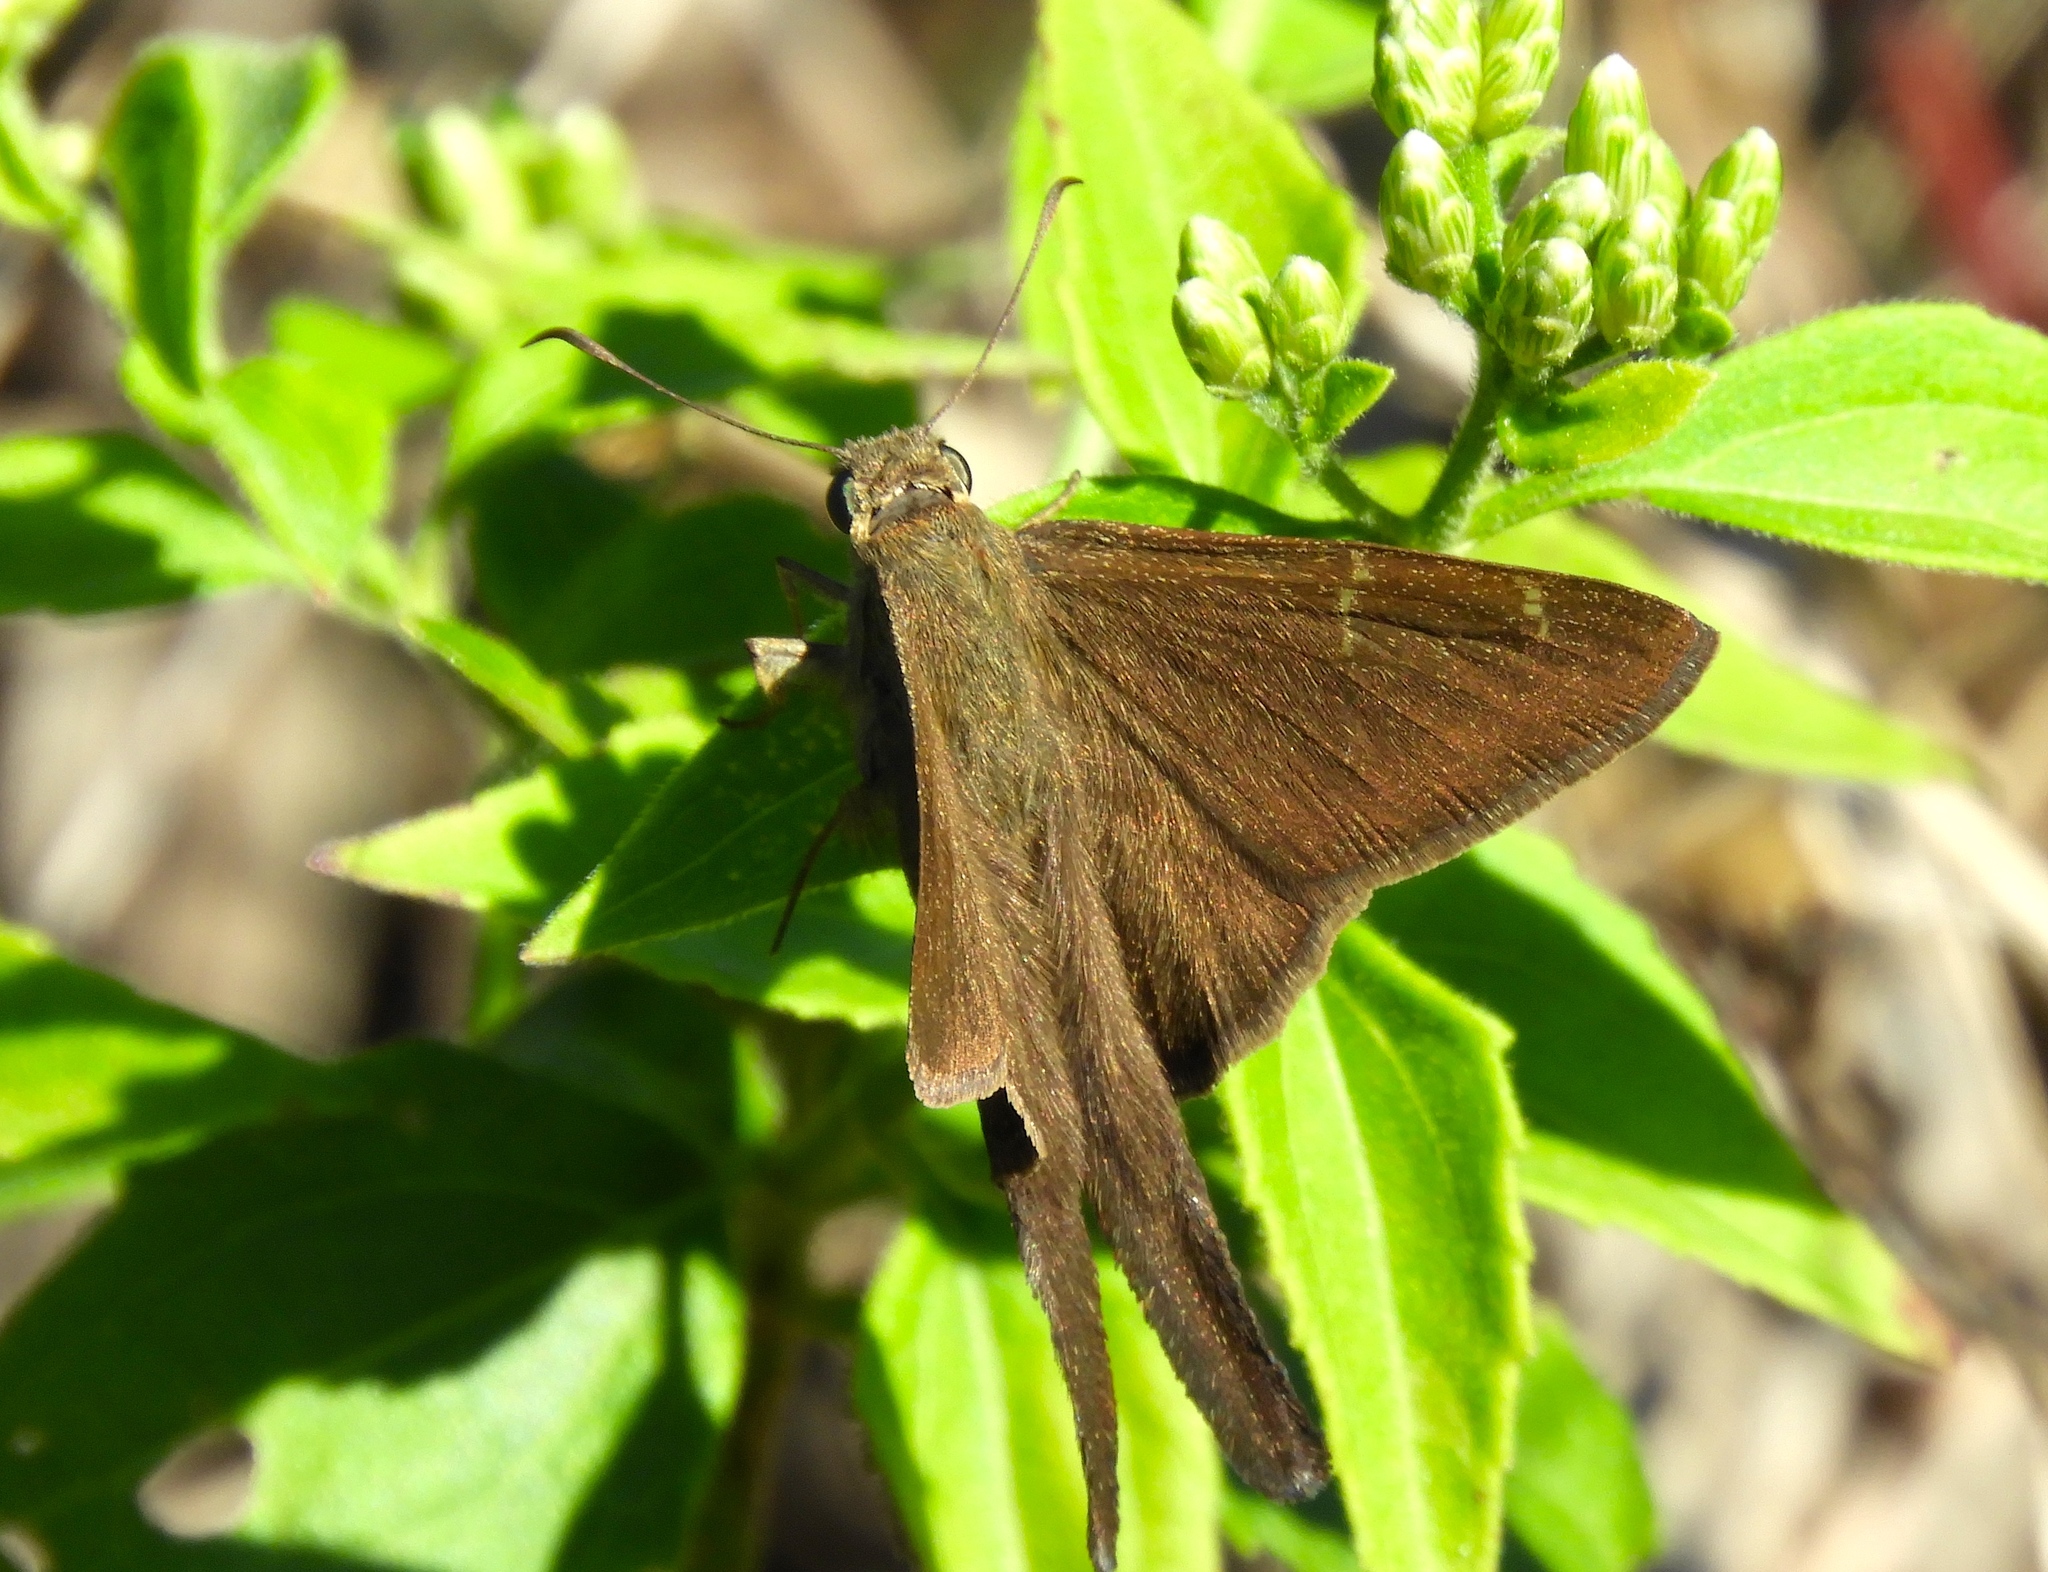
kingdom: Animalia
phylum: Arthropoda
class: Insecta
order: Lepidoptera
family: Hesperiidae
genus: Urbanus
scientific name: Urbanus procne
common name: Brown longtail
